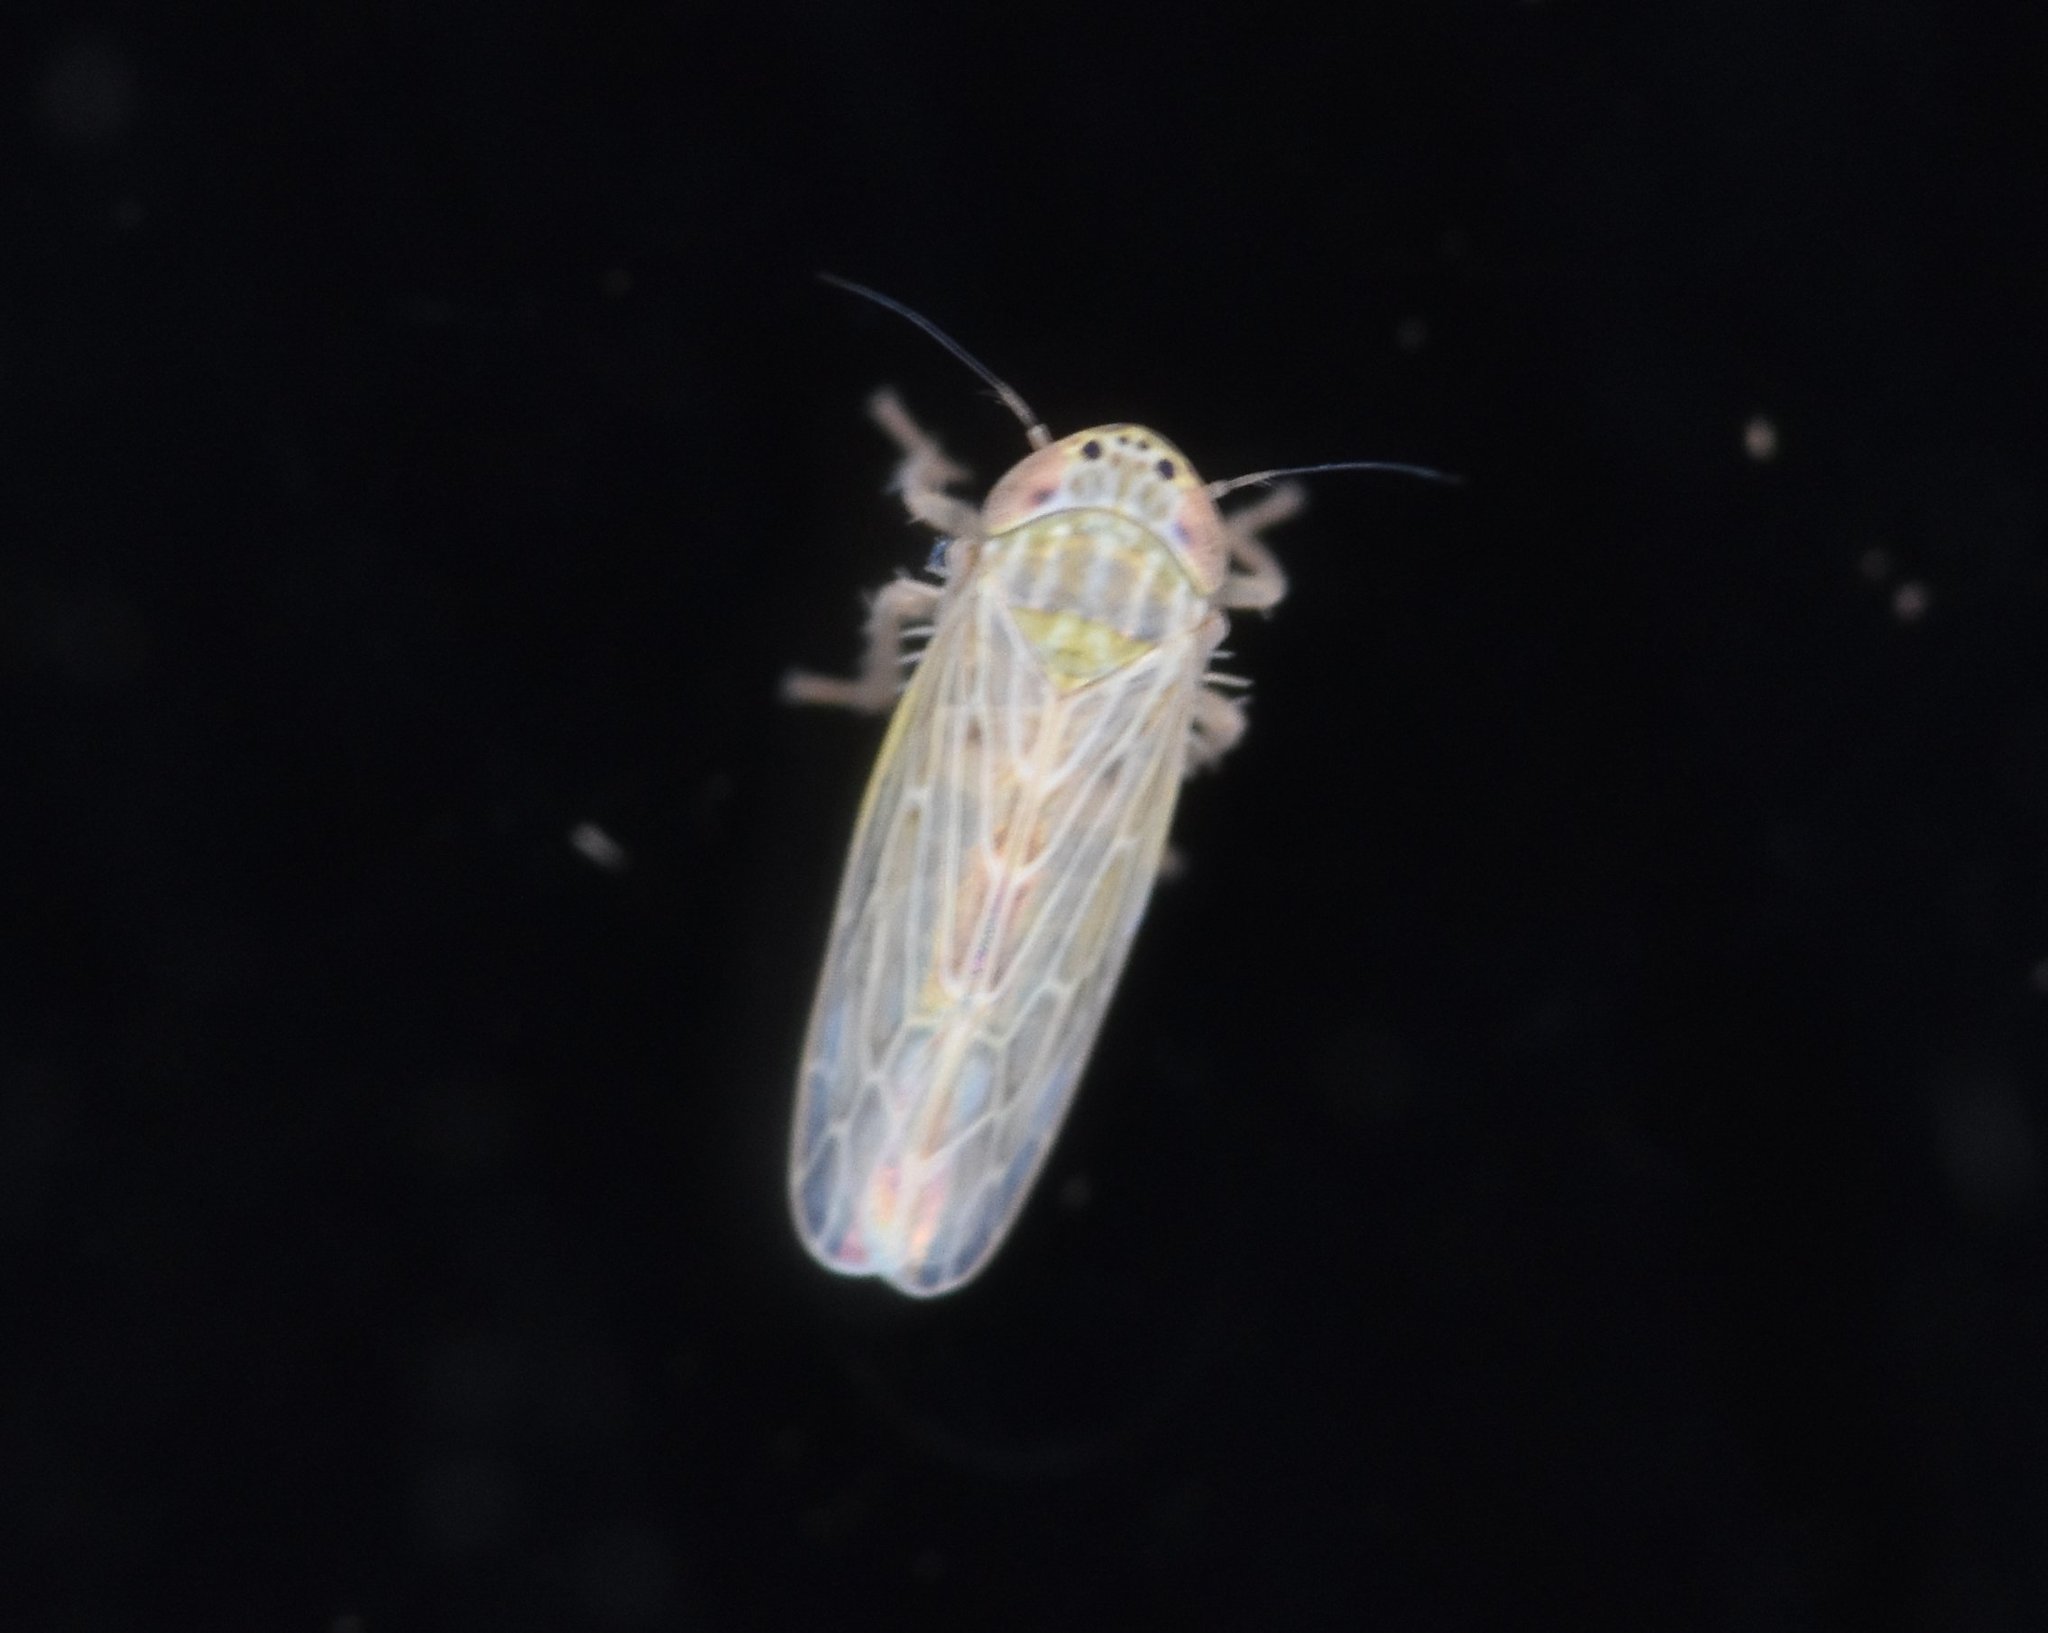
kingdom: Animalia
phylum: Arthropoda
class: Insecta
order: Hemiptera
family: Cicadellidae
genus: Graminella
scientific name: Graminella sonora
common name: Lesser lawn leafhopper
